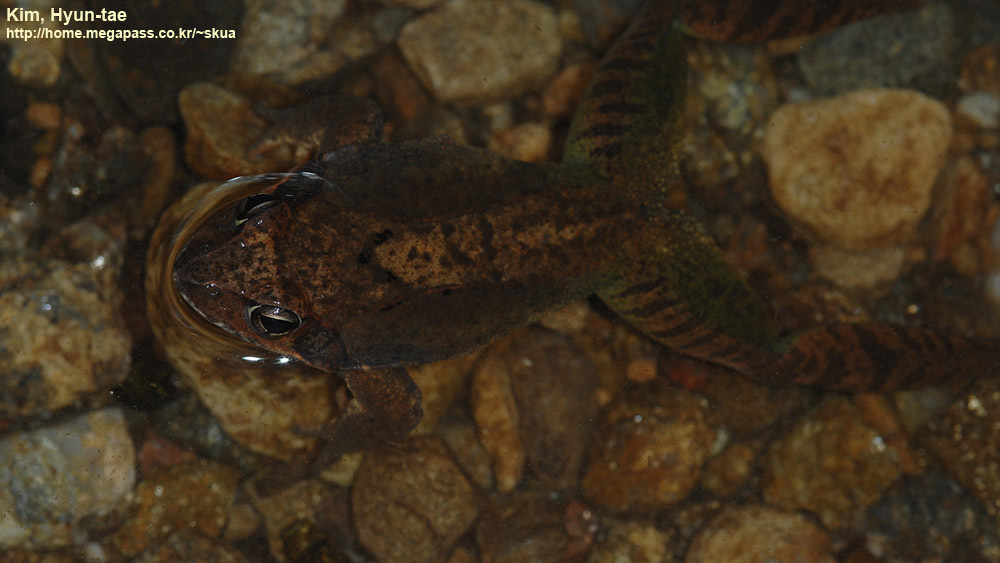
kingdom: Animalia
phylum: Chordata
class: Amphibia
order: Anura
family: Ranidae
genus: Rana
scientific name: Rana uenoi
